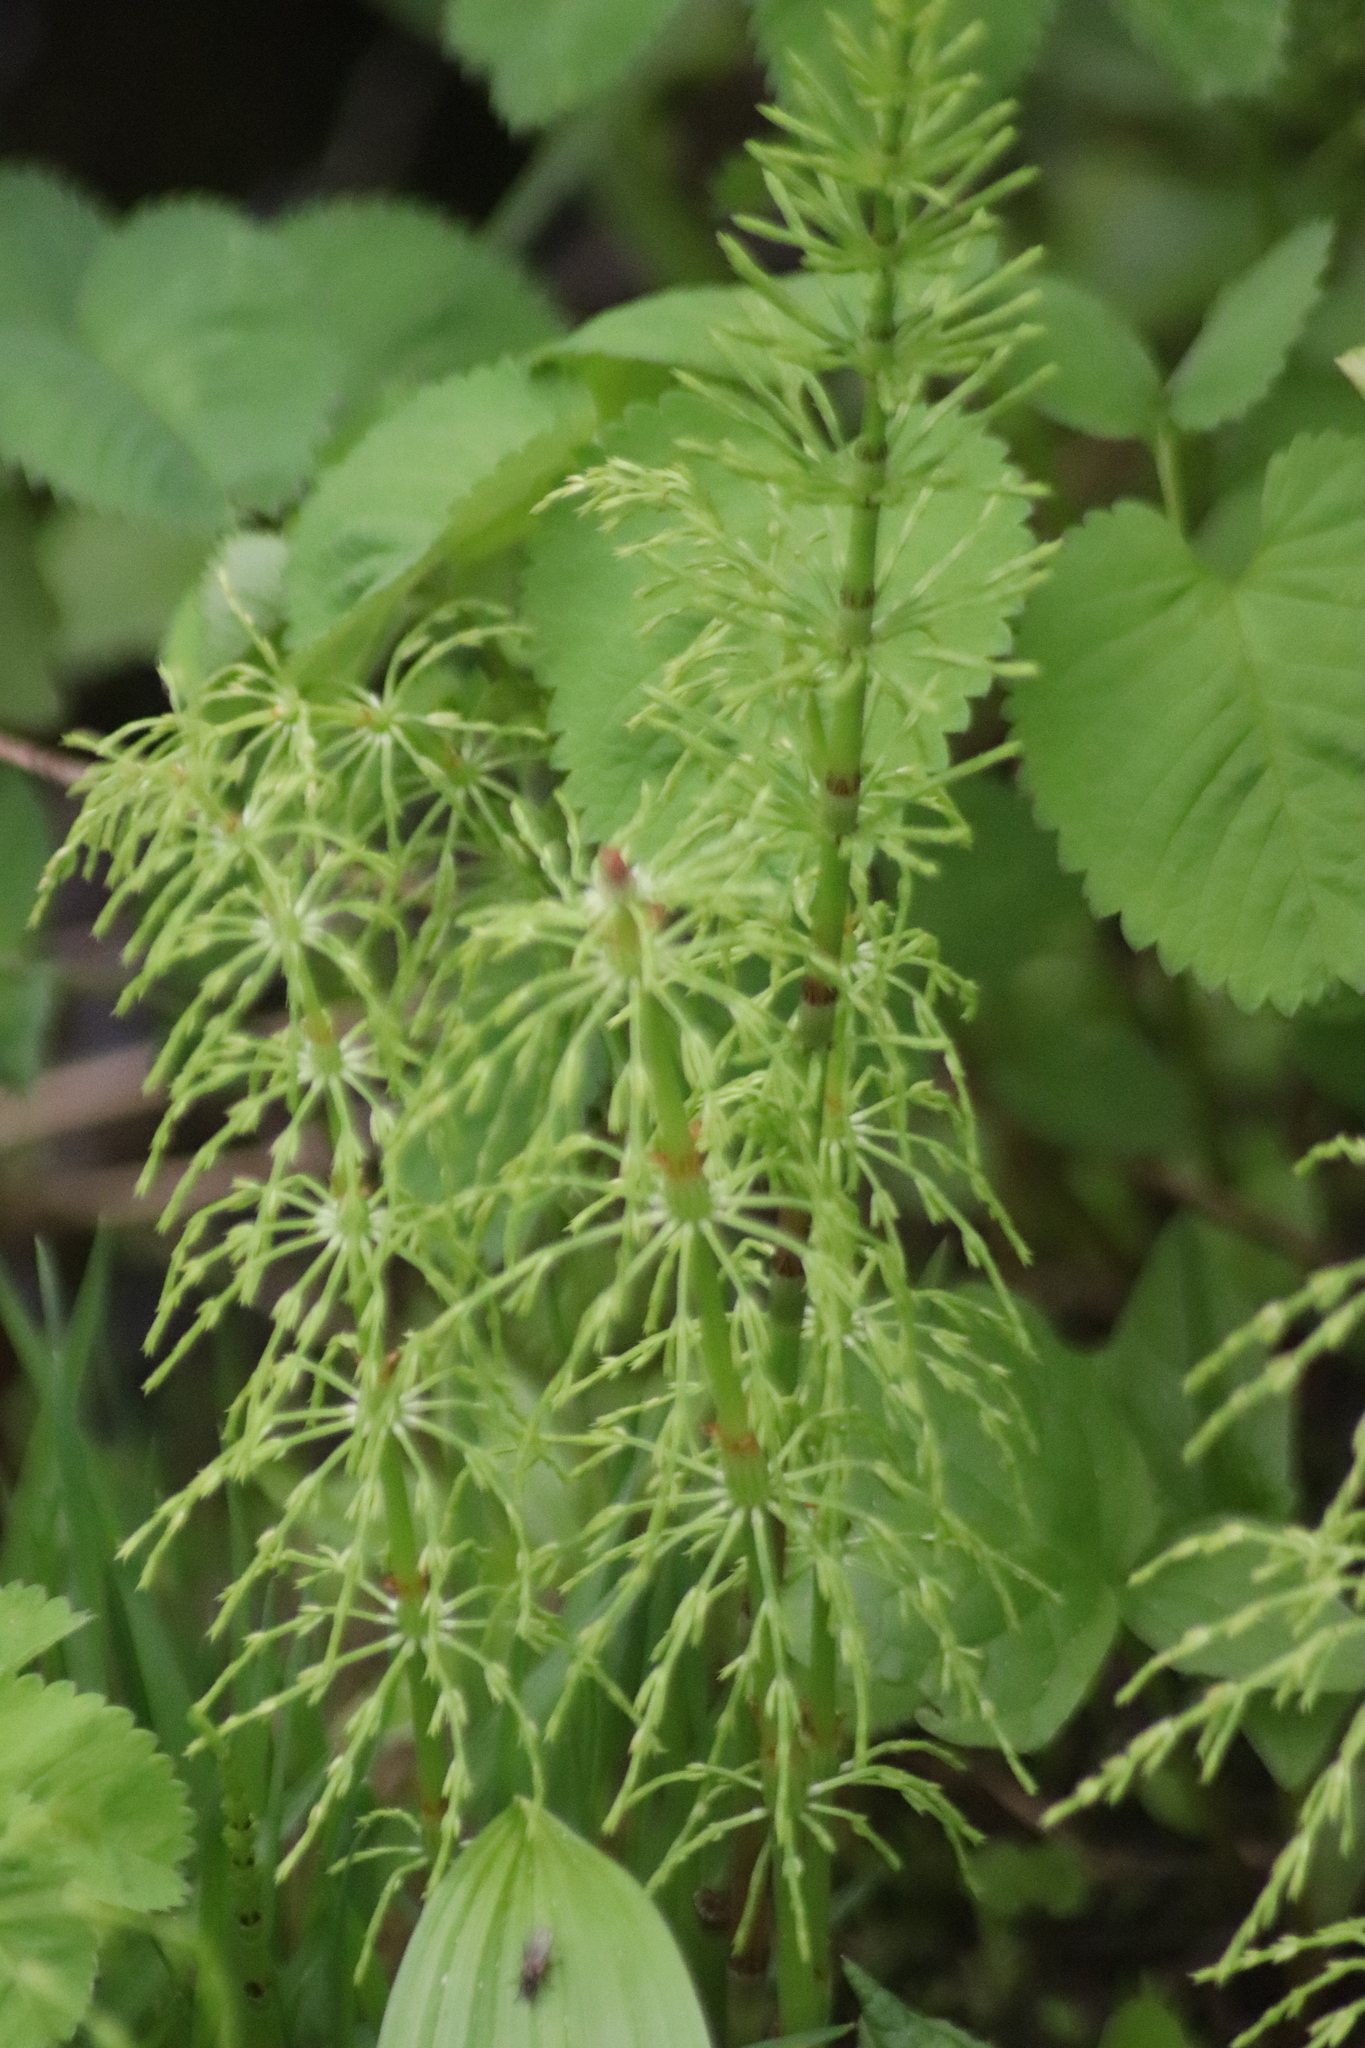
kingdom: Plantae
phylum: Tracheophyta
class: Polypodiopsida
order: Equisetales
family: Equisetaceae
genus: Equisetum
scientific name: Equisetum sylvaticum
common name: Wood horsetail
